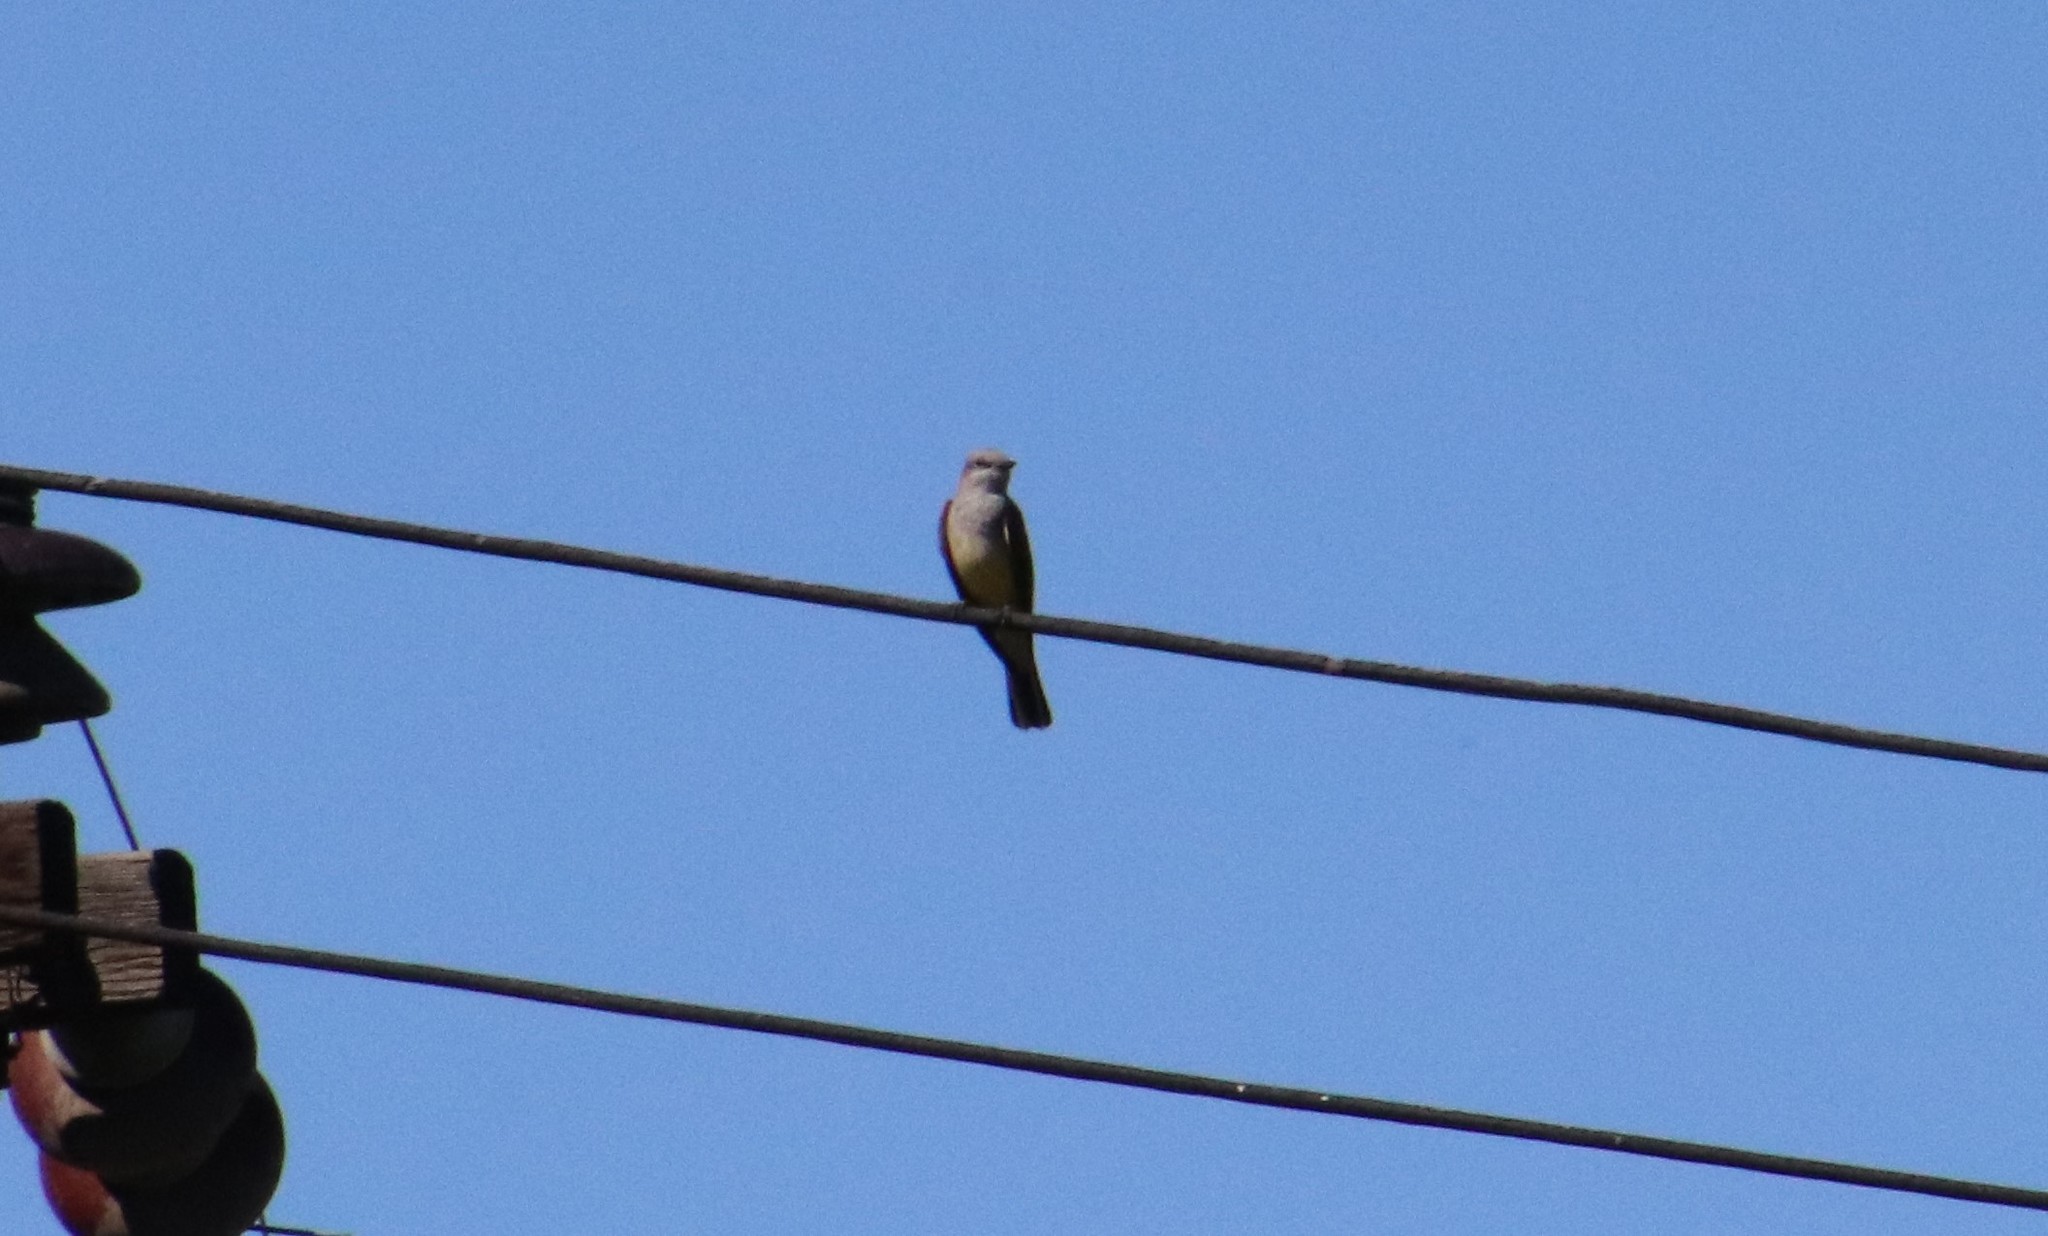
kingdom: Animalia
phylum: Chordata
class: Aves
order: Passeriformes
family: Tyrannidae
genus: Tyrannus
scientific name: Tyrannus verticalis
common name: Western kingbird
